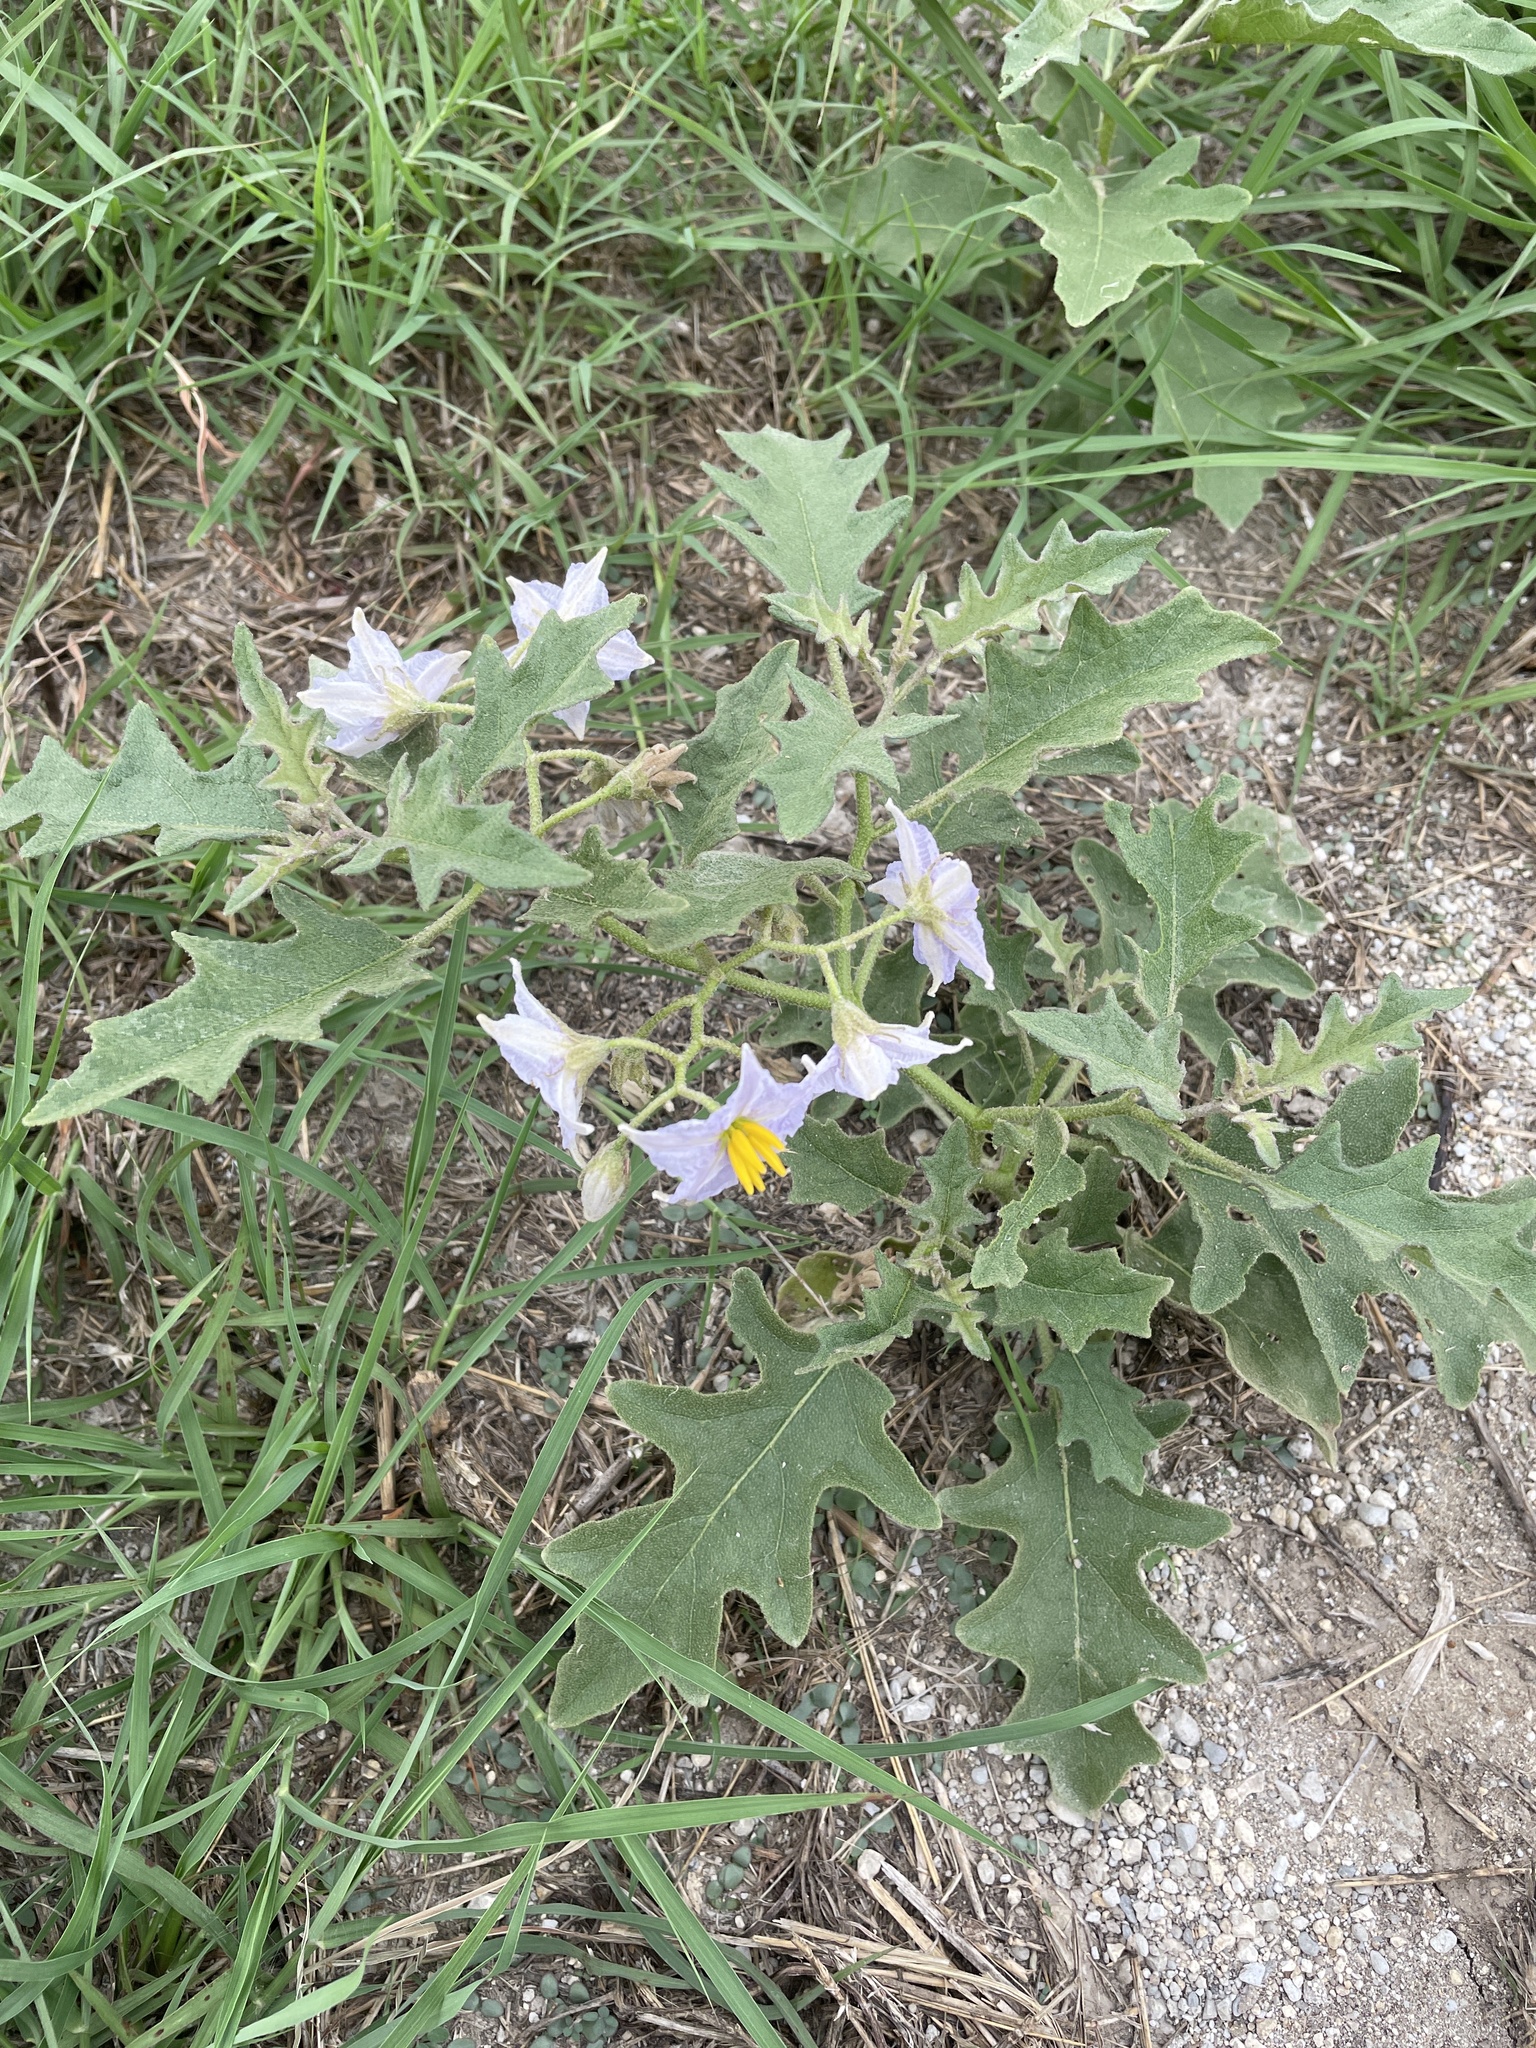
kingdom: Plantae
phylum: Tracheophyta
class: Magnoliopsida
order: Solanales
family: Solanaceae
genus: Solanum
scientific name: Solanum dimidiatum
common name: Carolina horse-nettle
